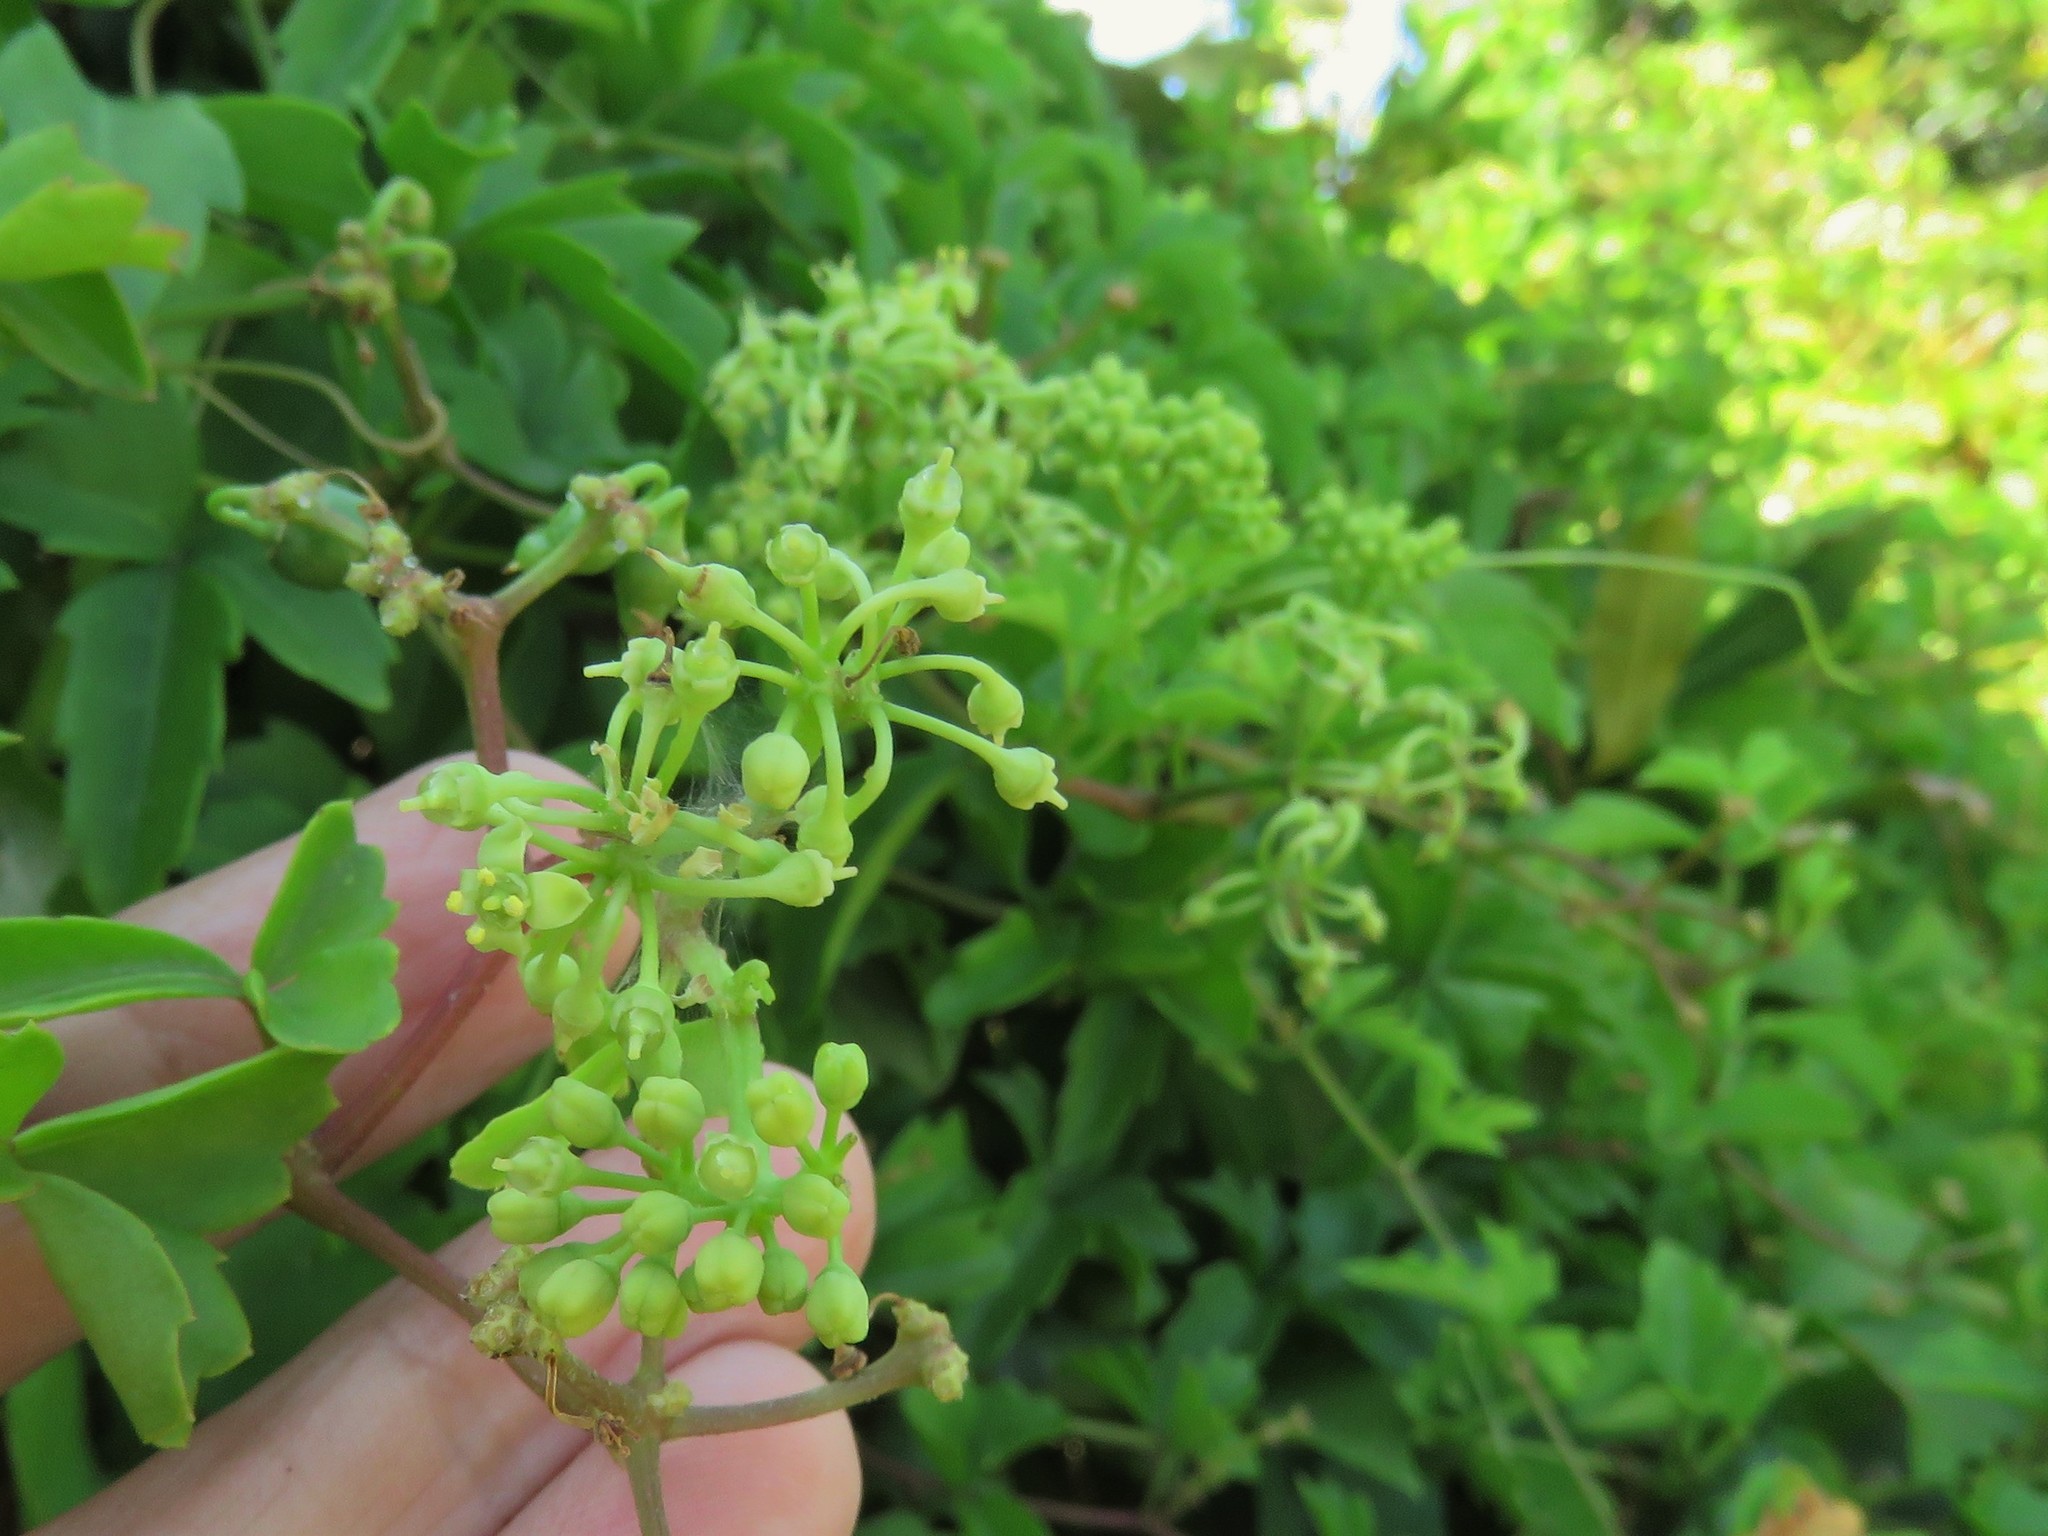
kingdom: Plantae
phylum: Tracheophyta
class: Magnoliopsida
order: Vitales
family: Vitaceae
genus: Cissus
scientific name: Cissus trifoliata
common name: Vine-sorrel
